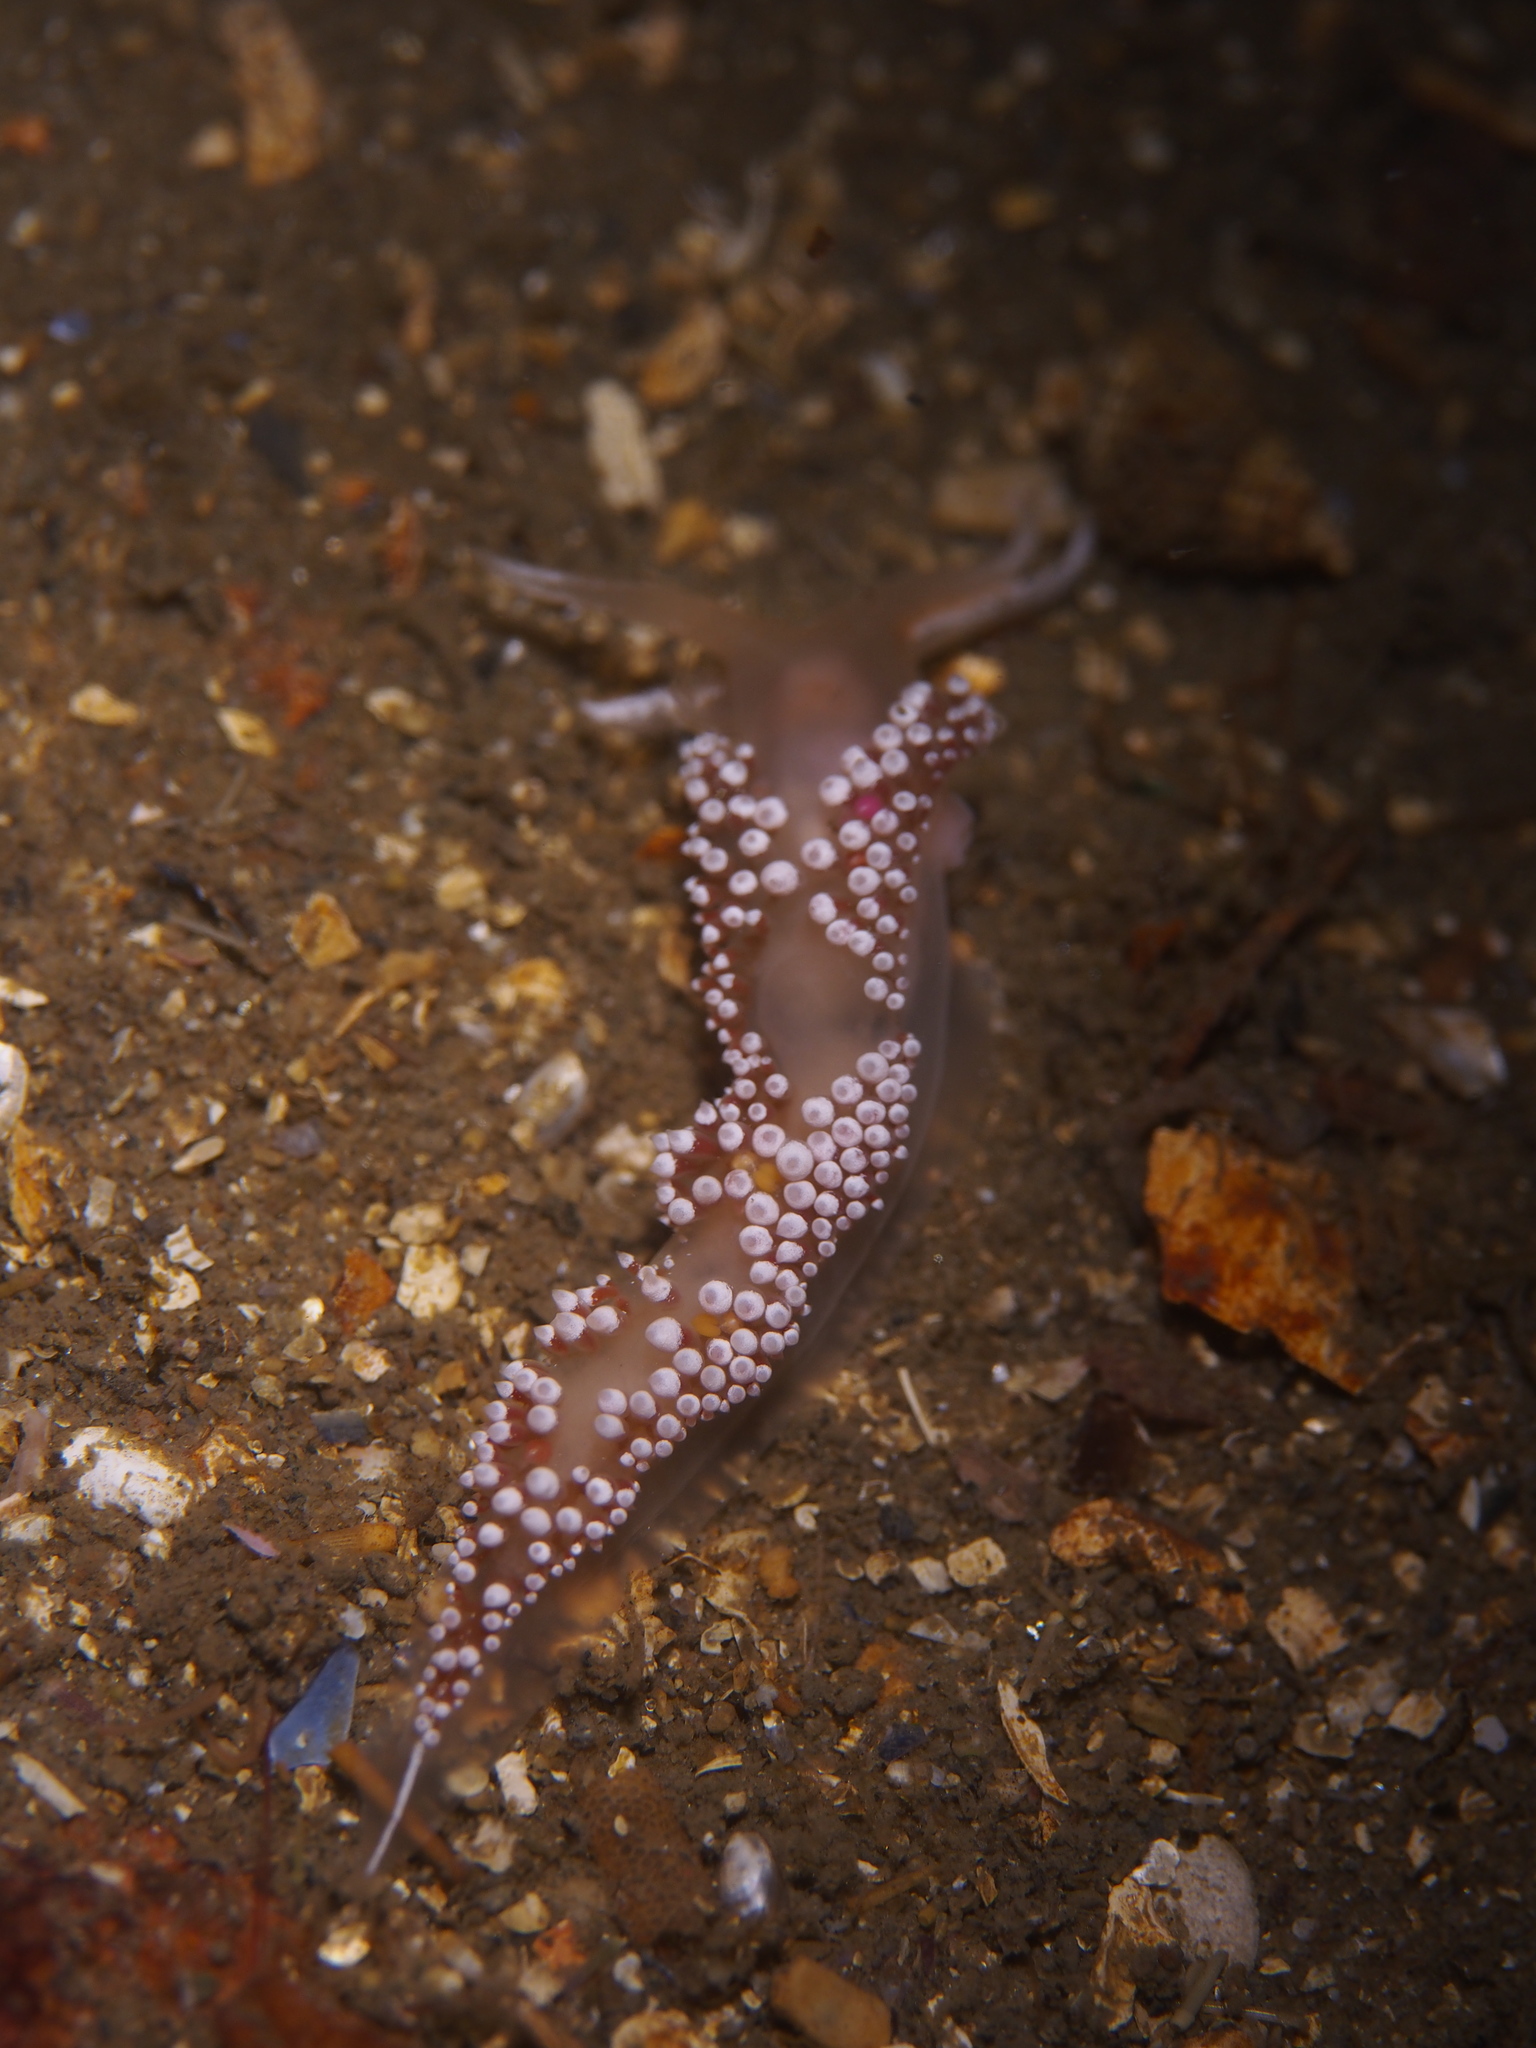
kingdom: Animalia
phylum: Mollusca
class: Gastropoda
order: Nudibranchia
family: Coryphellidae
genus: Coryphella
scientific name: Coryphella verrucosa
